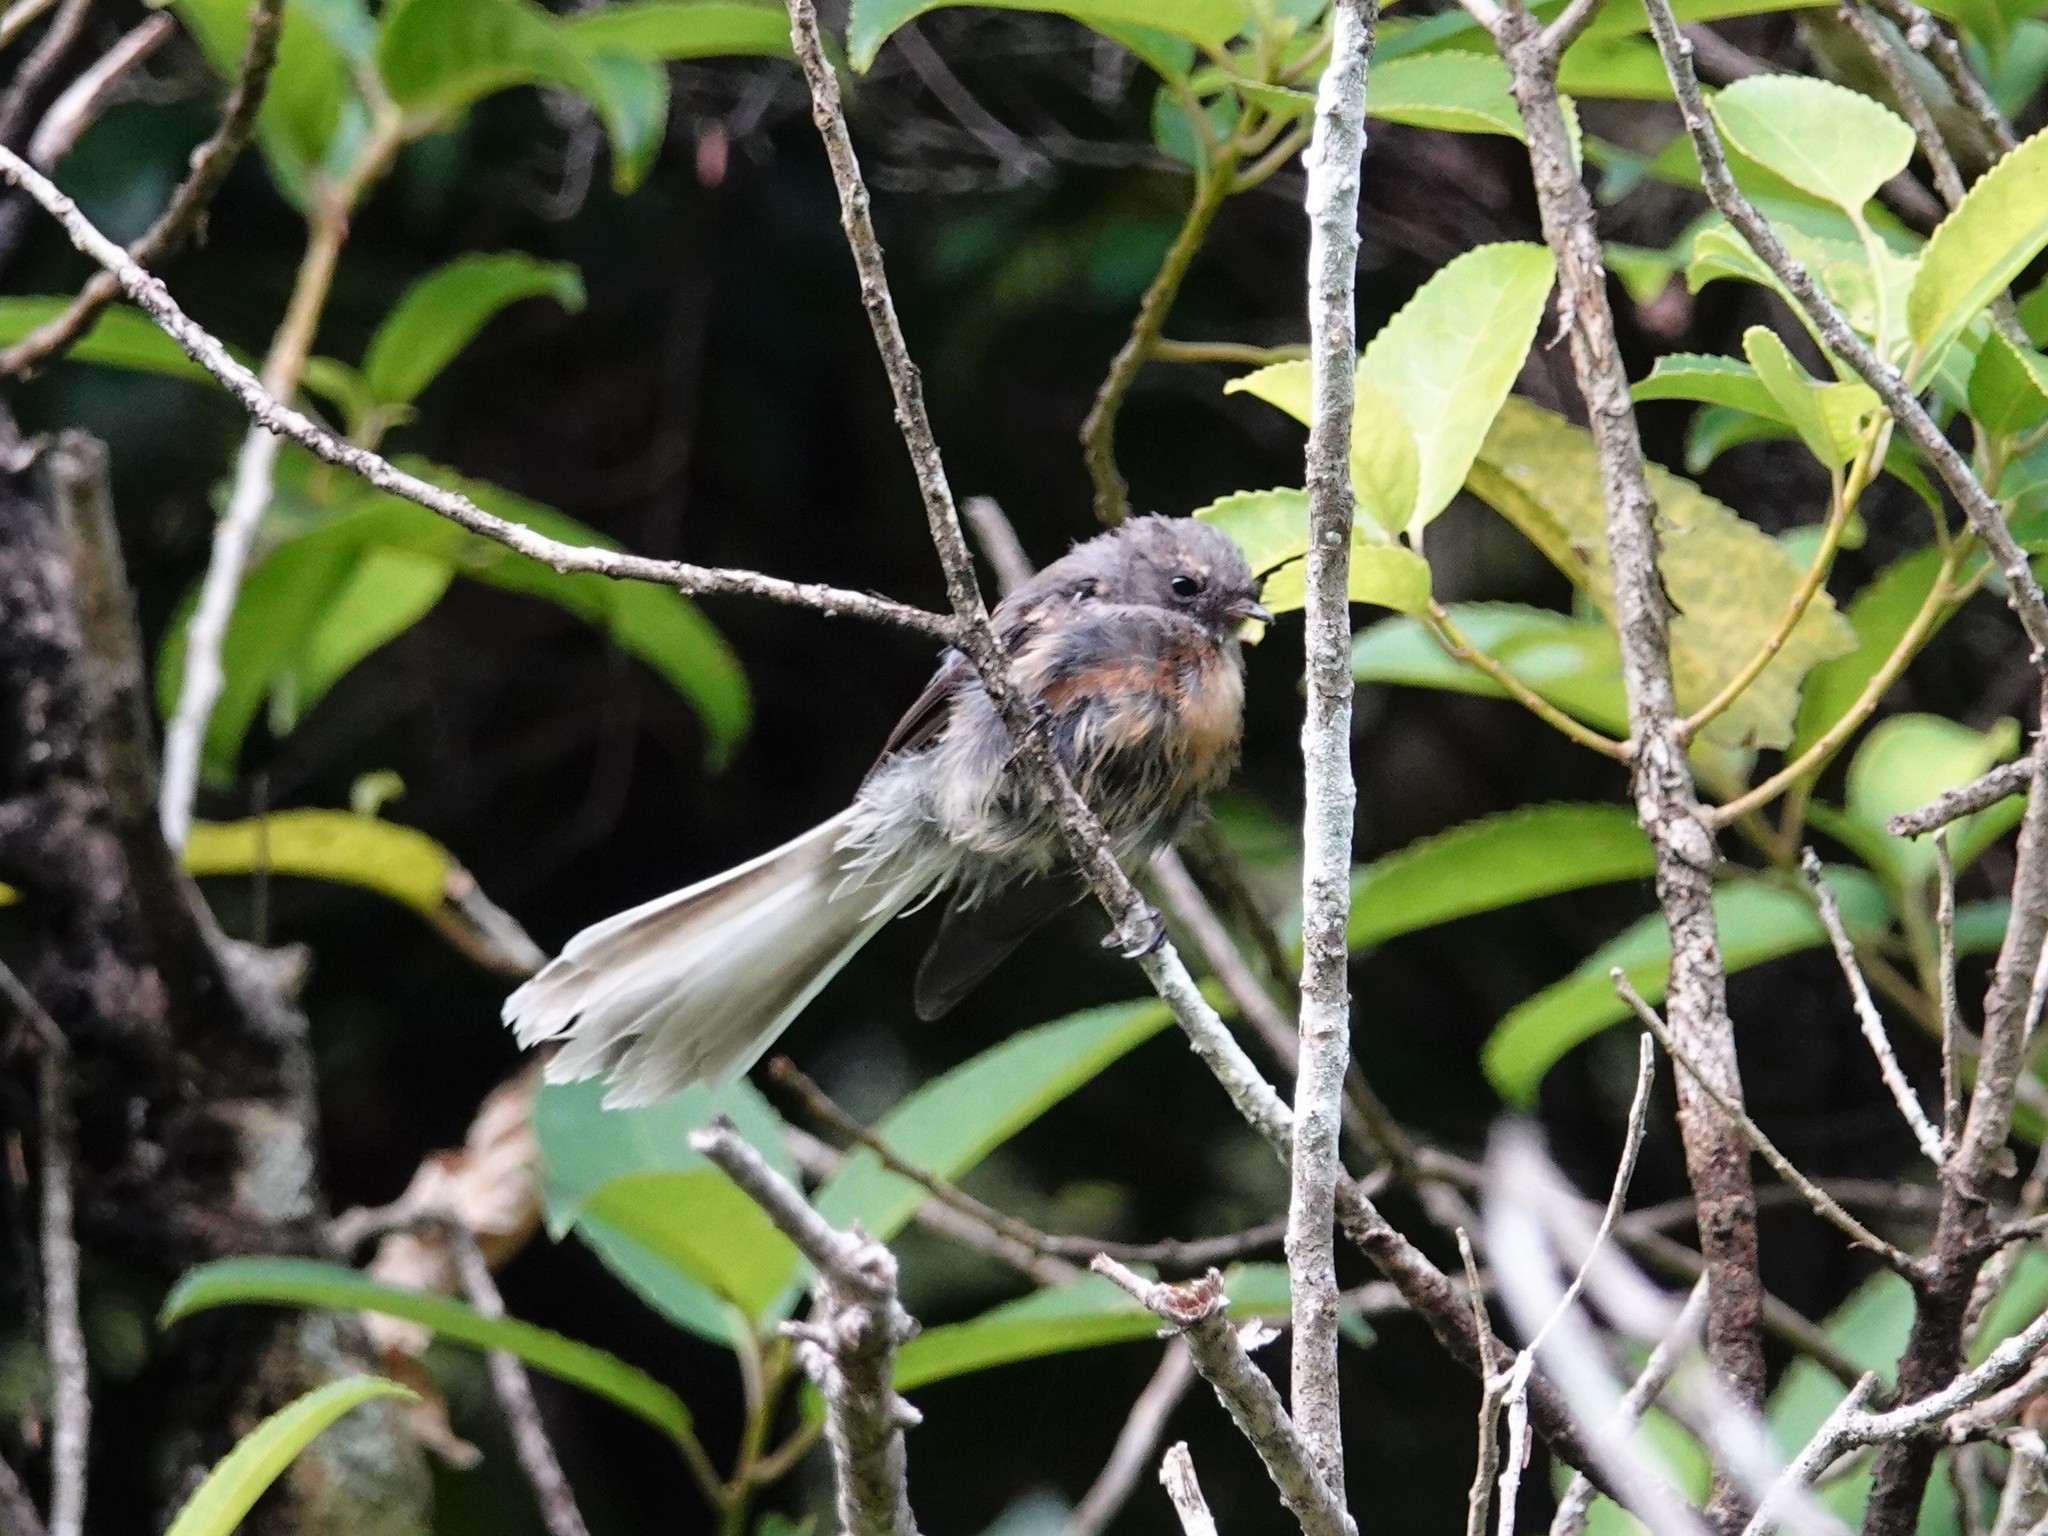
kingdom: Animalia
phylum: Chordata
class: Aves
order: Passeriformes
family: Rhipiduridae
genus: Rhipidura
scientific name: Rhipidura fuliginosa
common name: New zealand fantail
